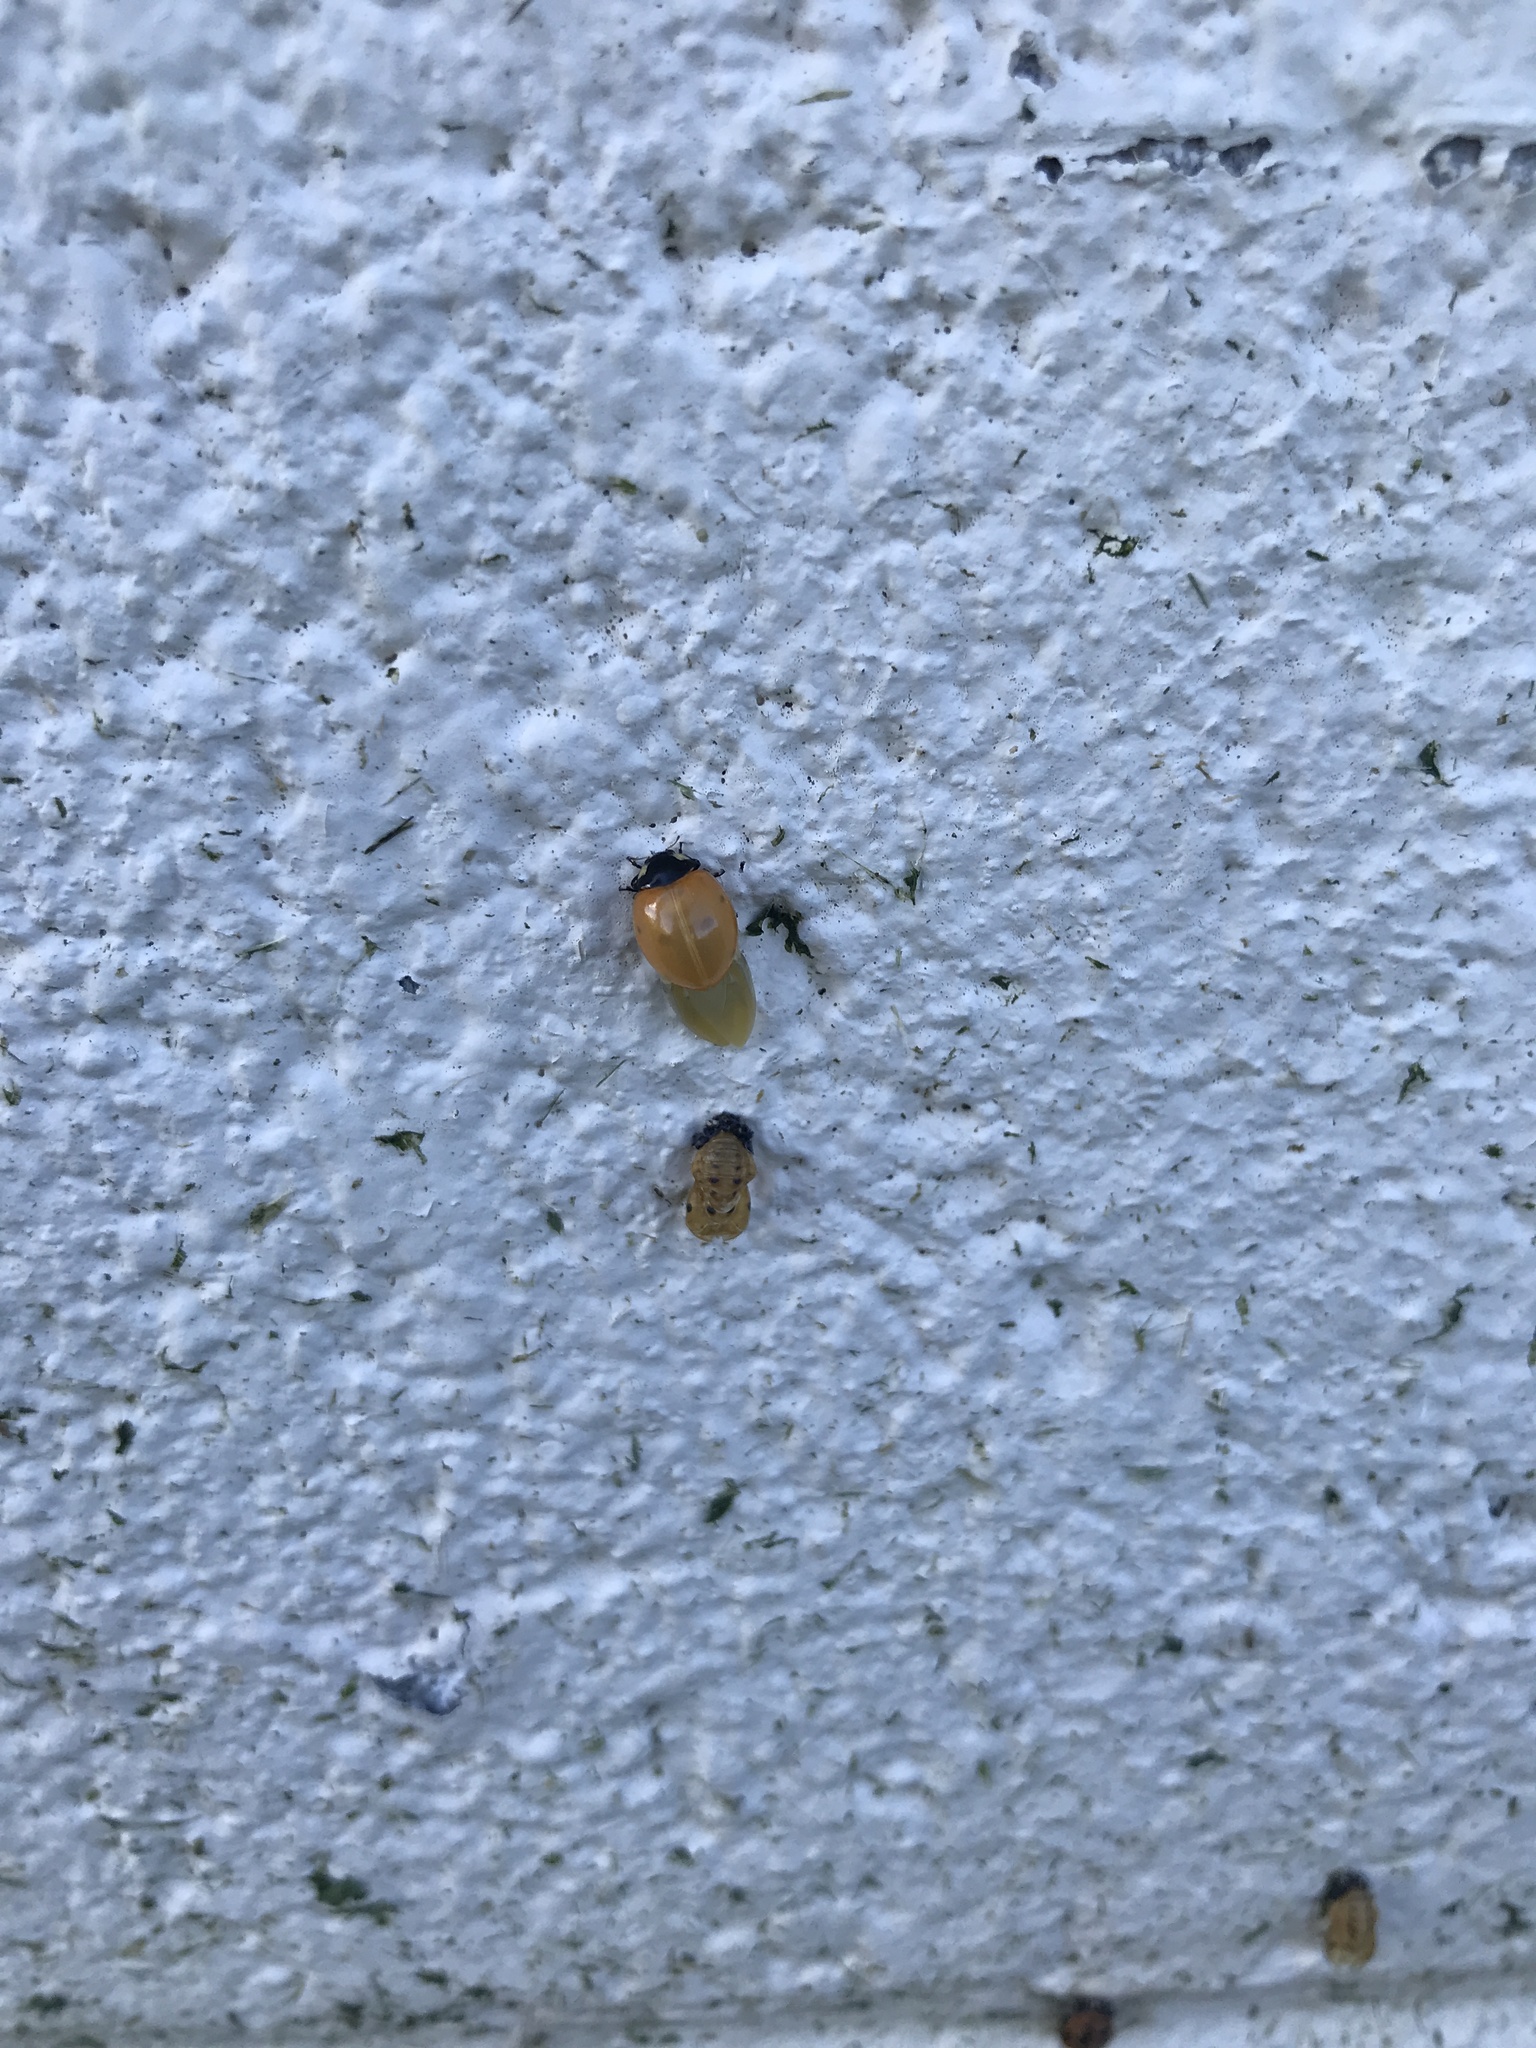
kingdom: Animalia
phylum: Arthropoda
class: Insecta
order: Coleoptera
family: Coccinellidae
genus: Coccinella
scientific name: Coccinella septempunctata
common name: Sevenspotted lady beetle
